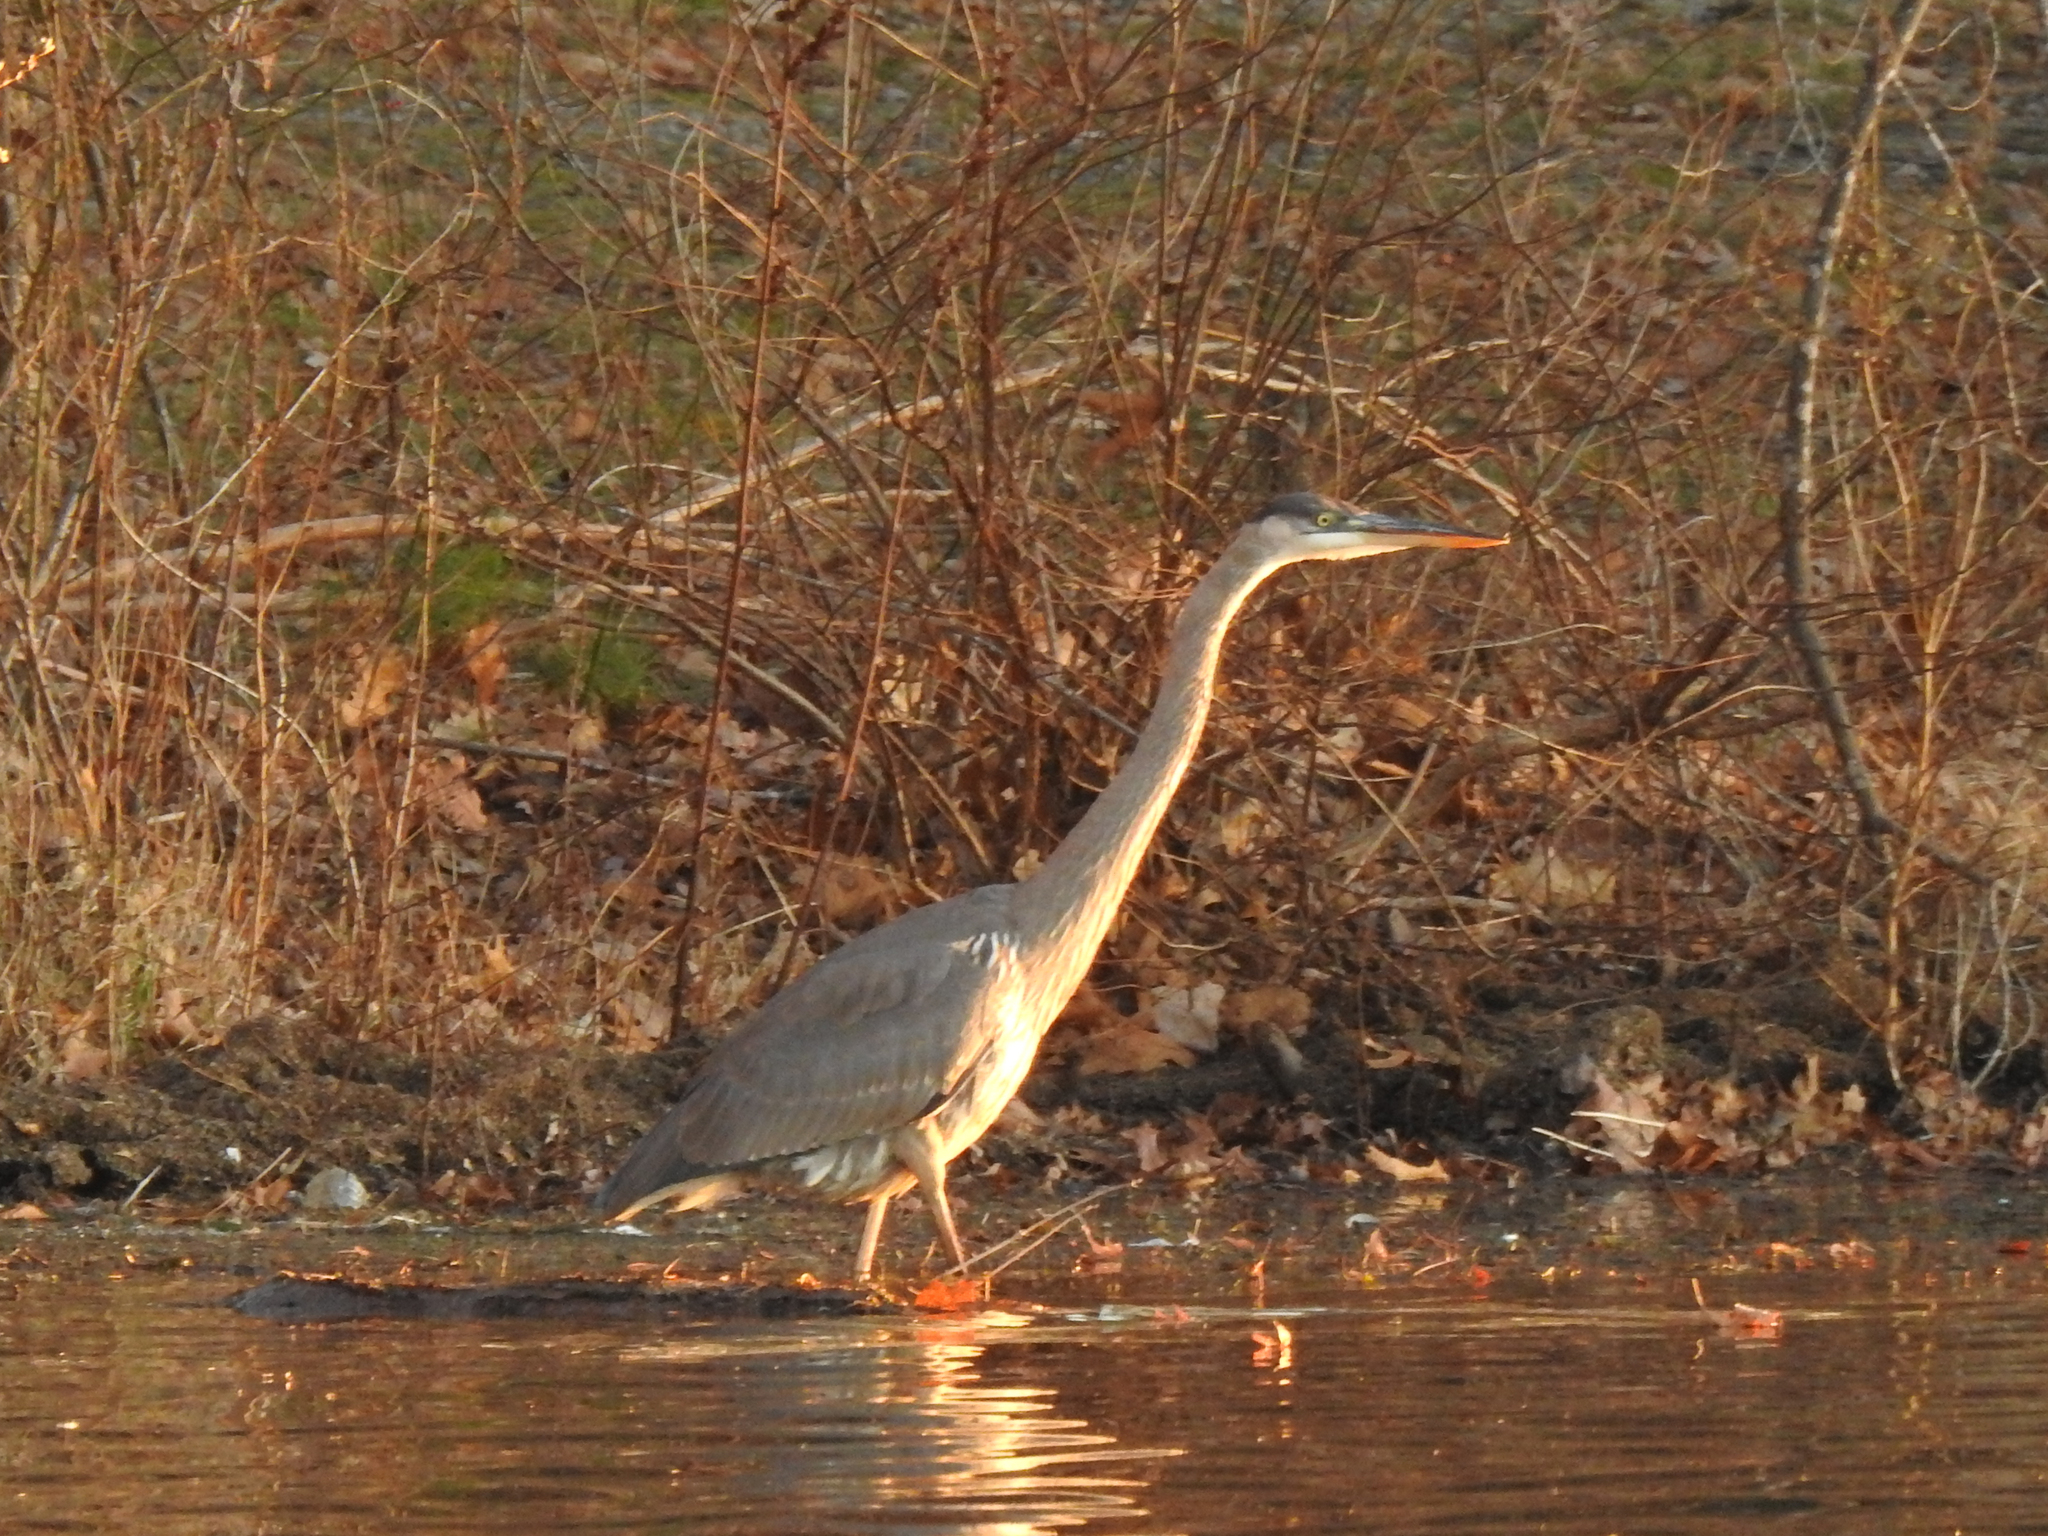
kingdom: Animalia
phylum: Chordata
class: Aves
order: Pelecaniformes
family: Ardeidae
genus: Ardea
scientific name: Ardea herodias
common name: Great blue heron
